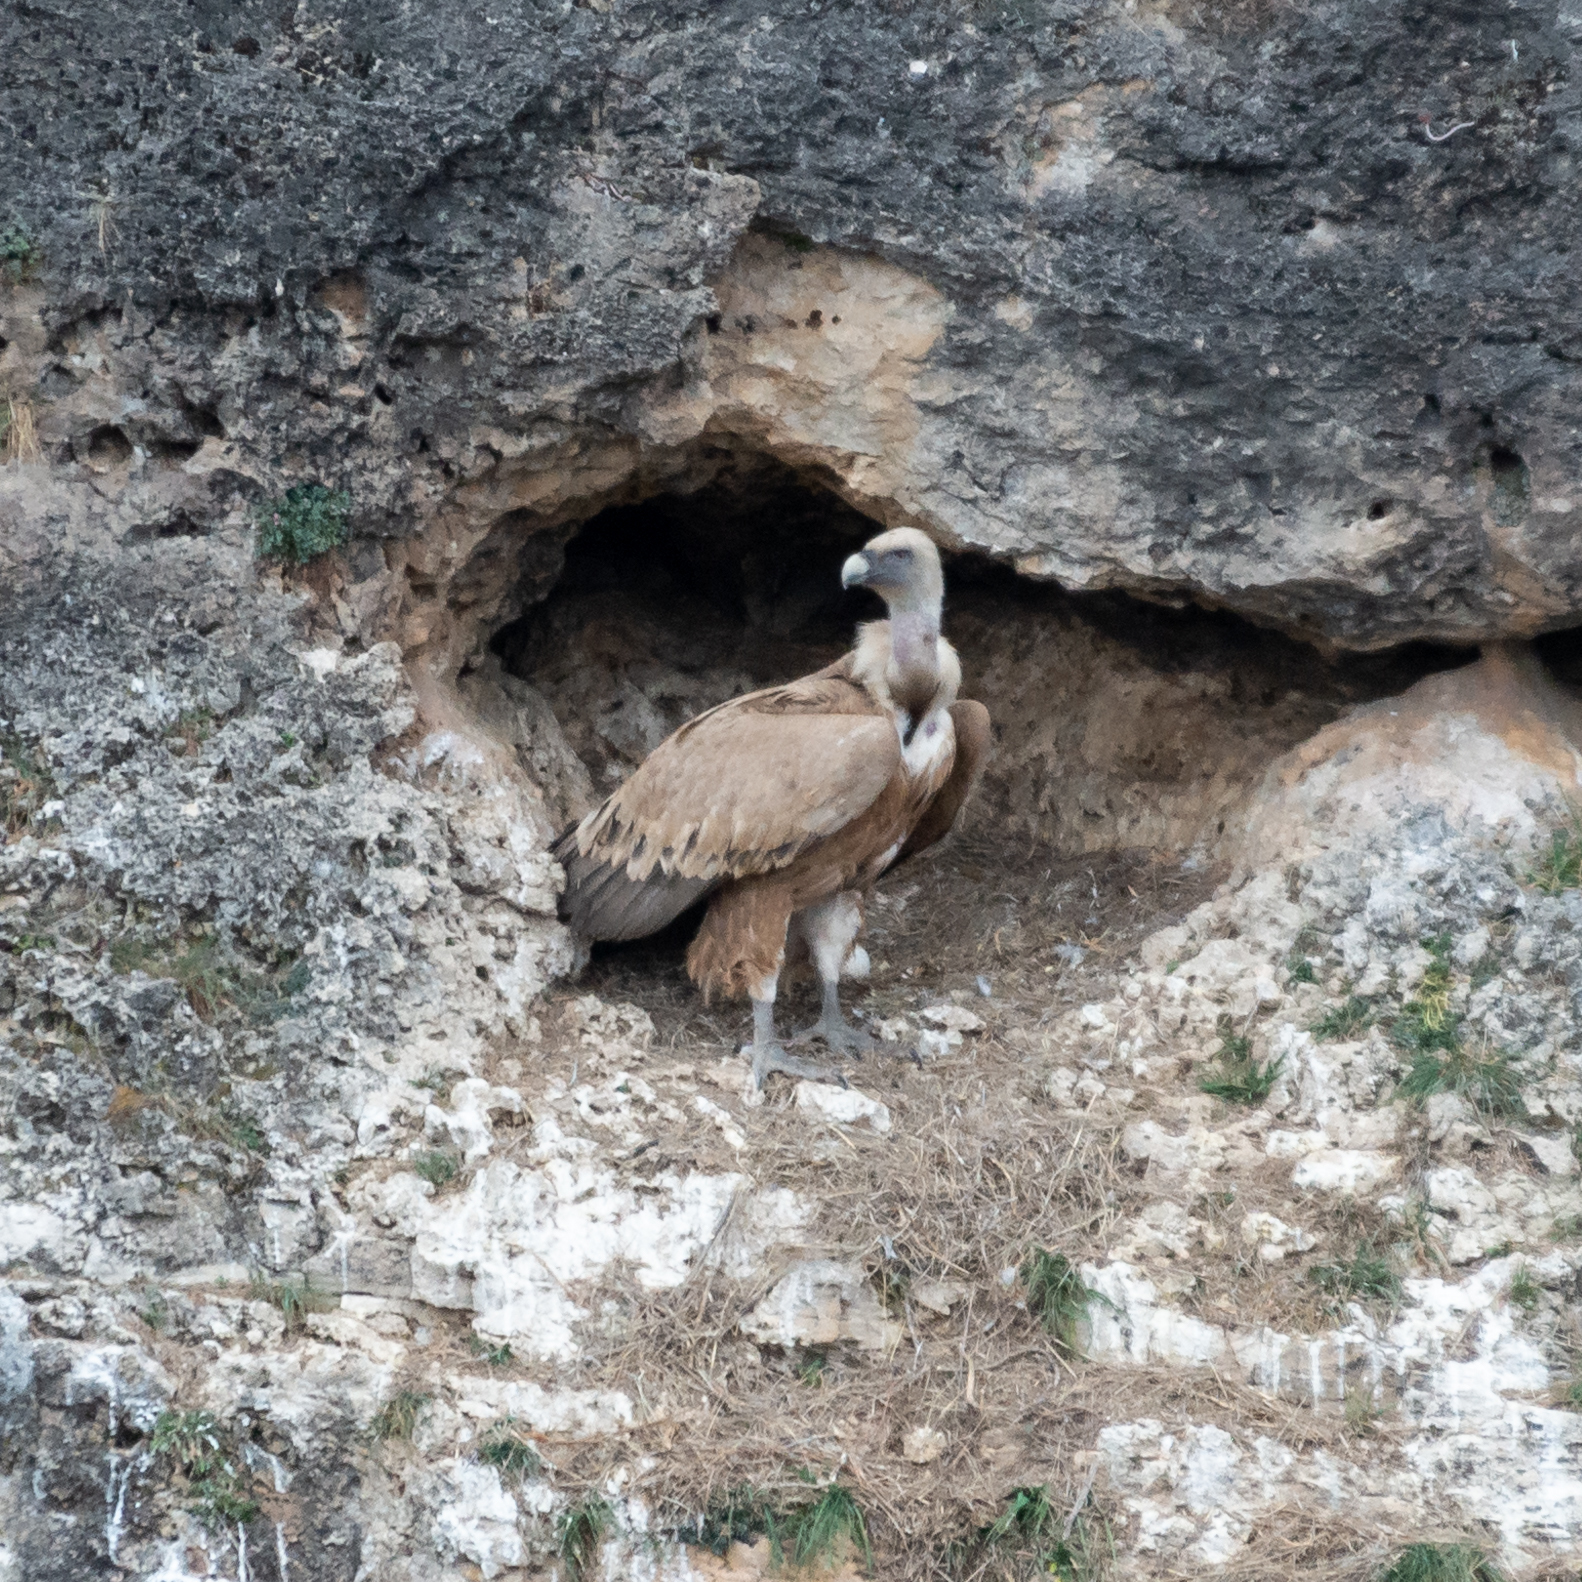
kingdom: Animalia
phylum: Chordata
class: Aves
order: Accipitriformes
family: Accipitridae
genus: Gyps
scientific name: Gyps fulvus
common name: Griffon vulture
